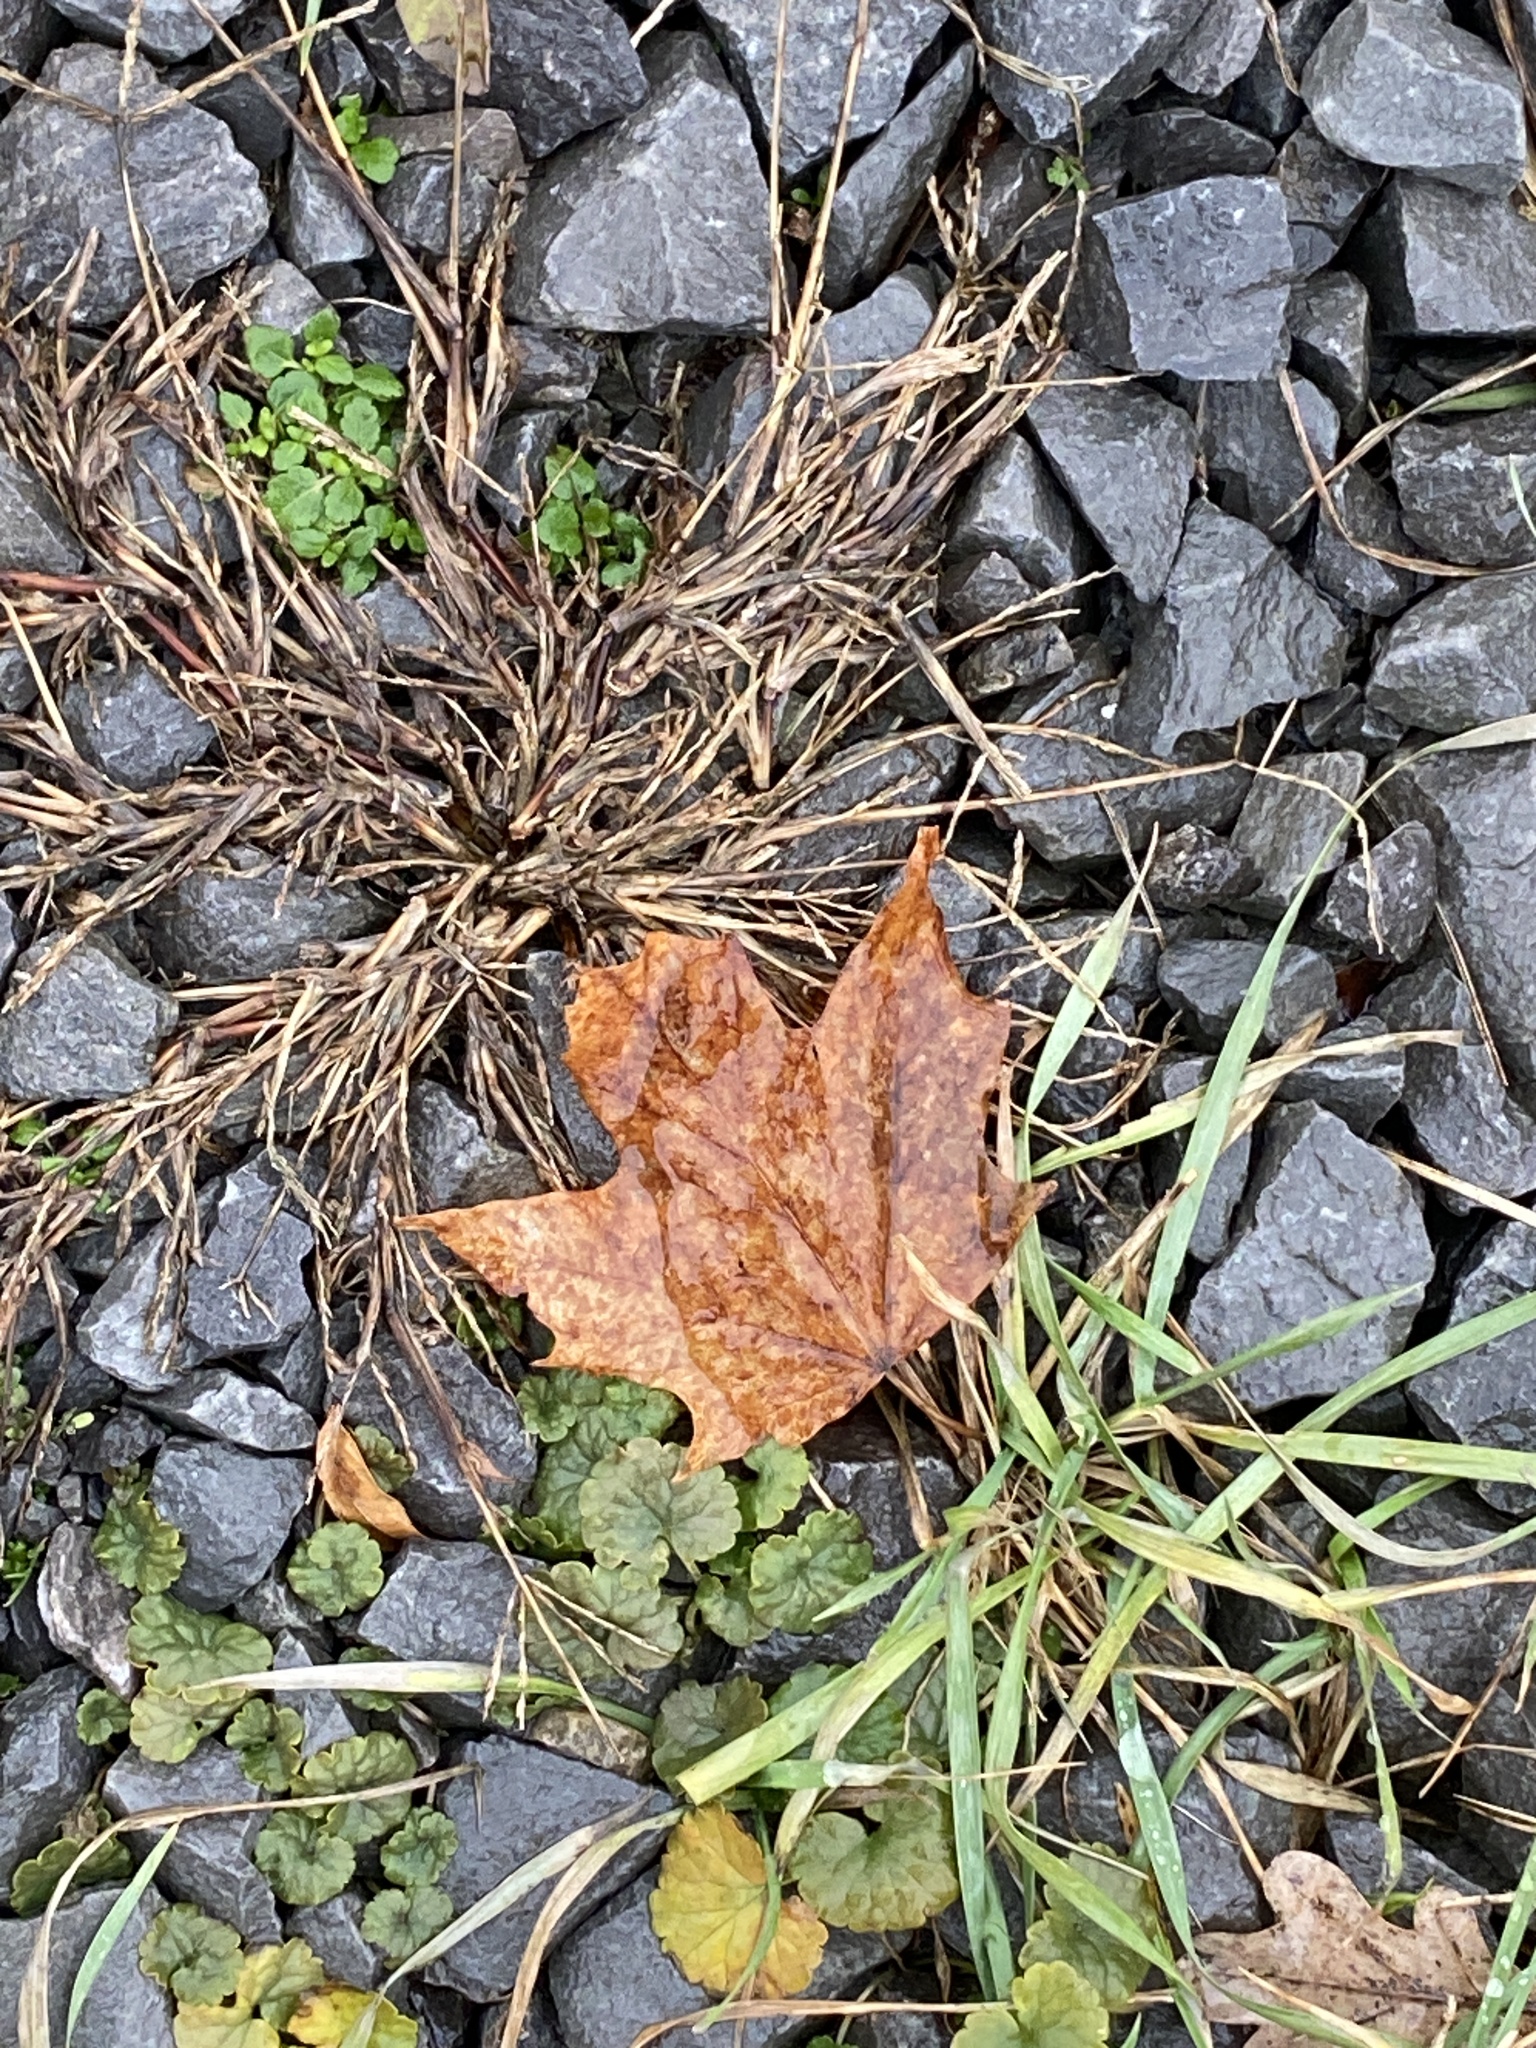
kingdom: Plantae
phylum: Tracheophyta
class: Magnoliopsida
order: Sapindales
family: Sapindaceae
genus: Acer
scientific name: Acer saccharum
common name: Sugar maple
